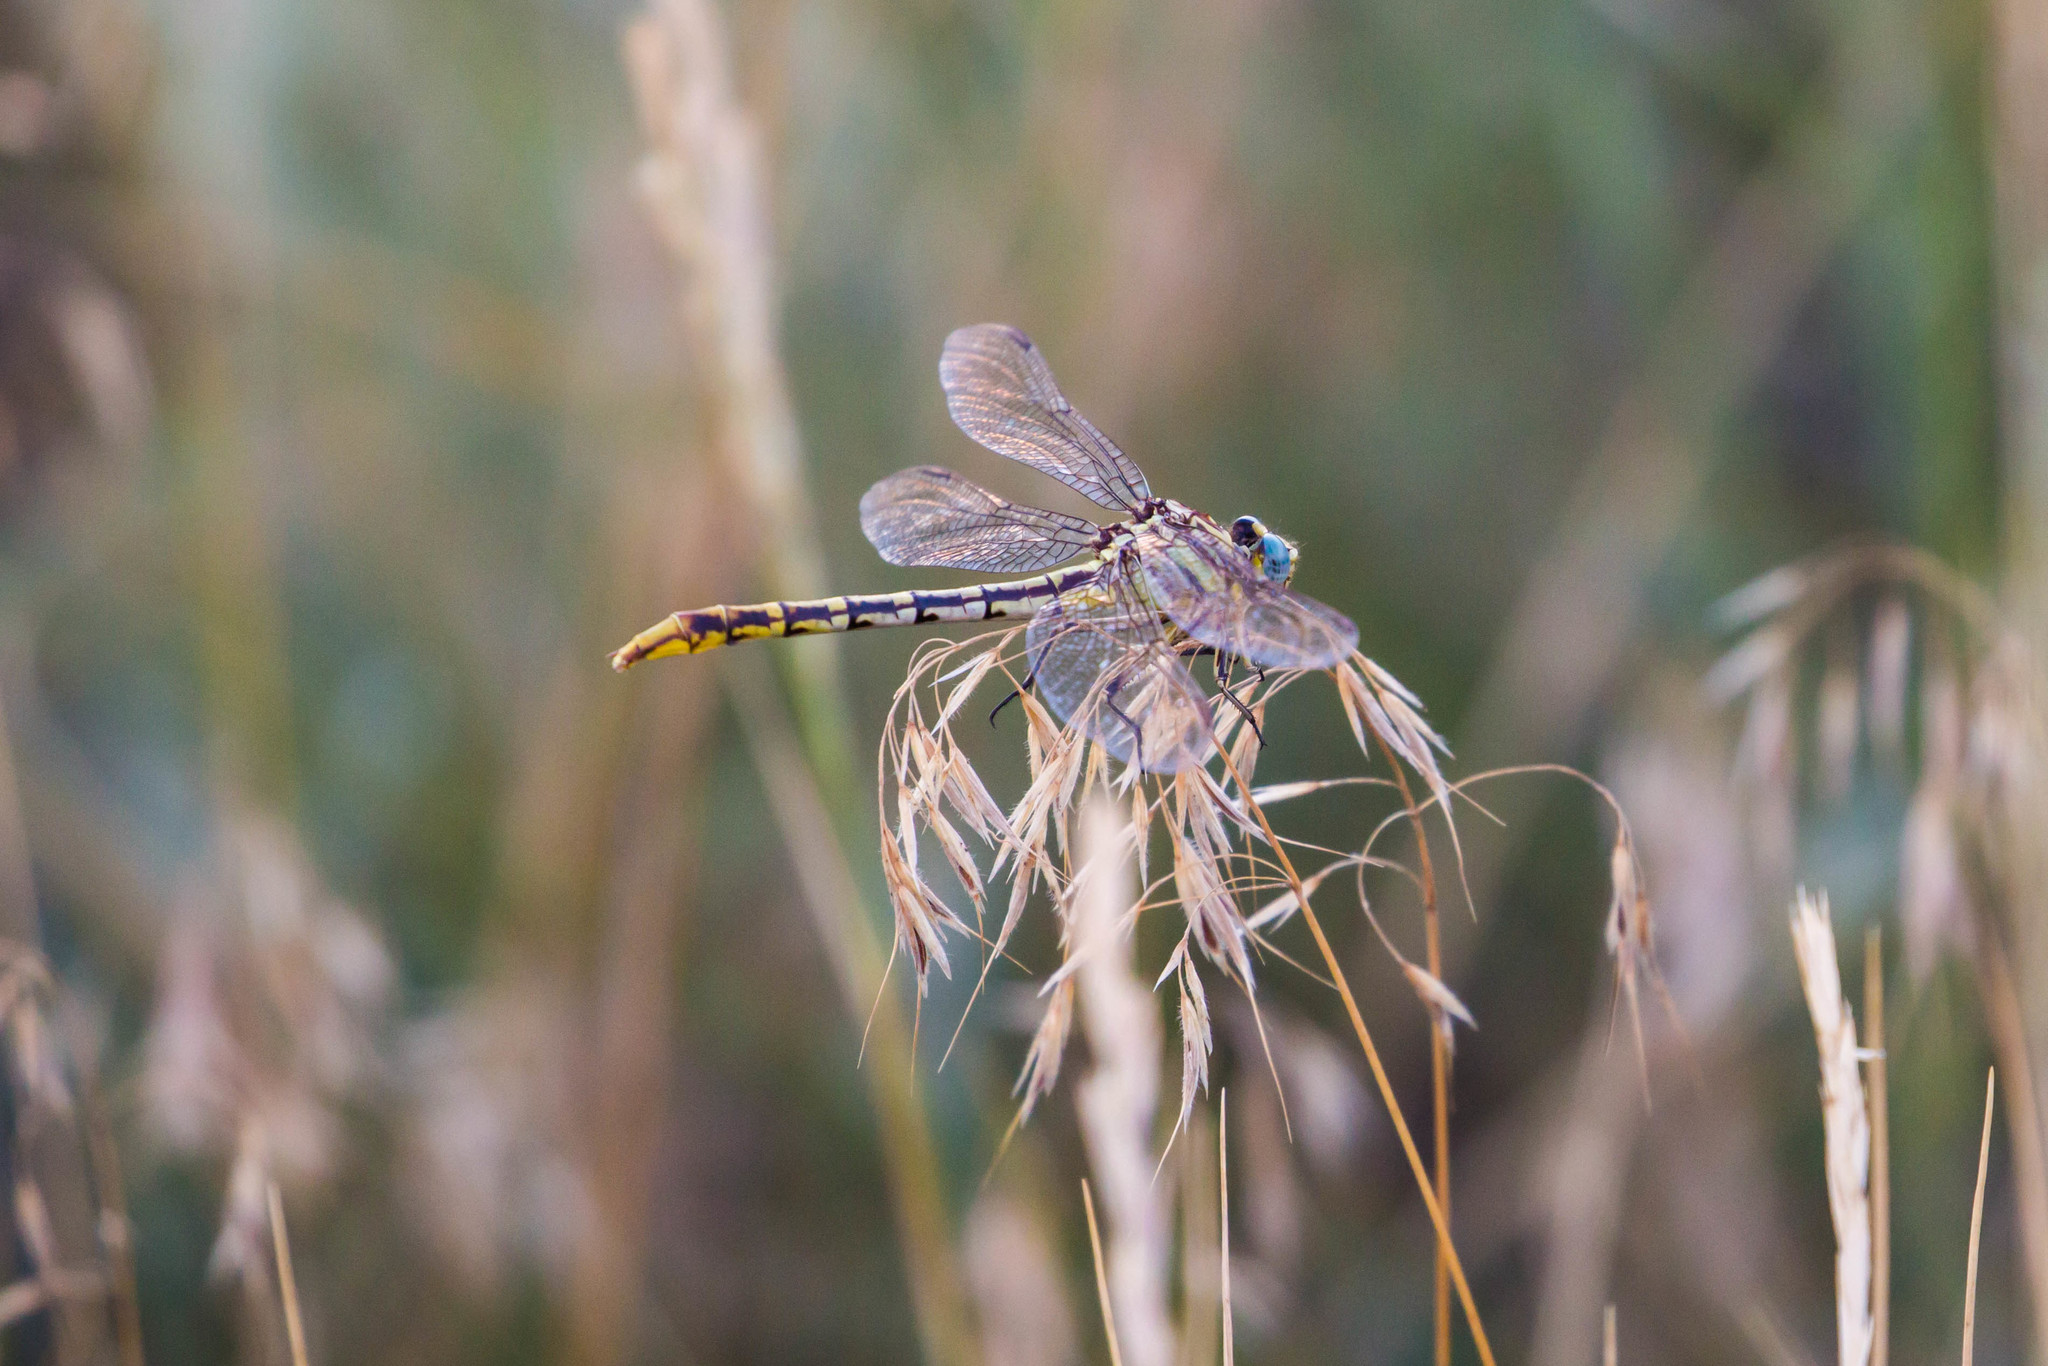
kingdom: Animalia
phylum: Arthropoda
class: Insecta
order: Odonata
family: Gomphidae
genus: Phanogomphus
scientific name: Phanogomphus militaris
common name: Sulphur-tipped clubtail
